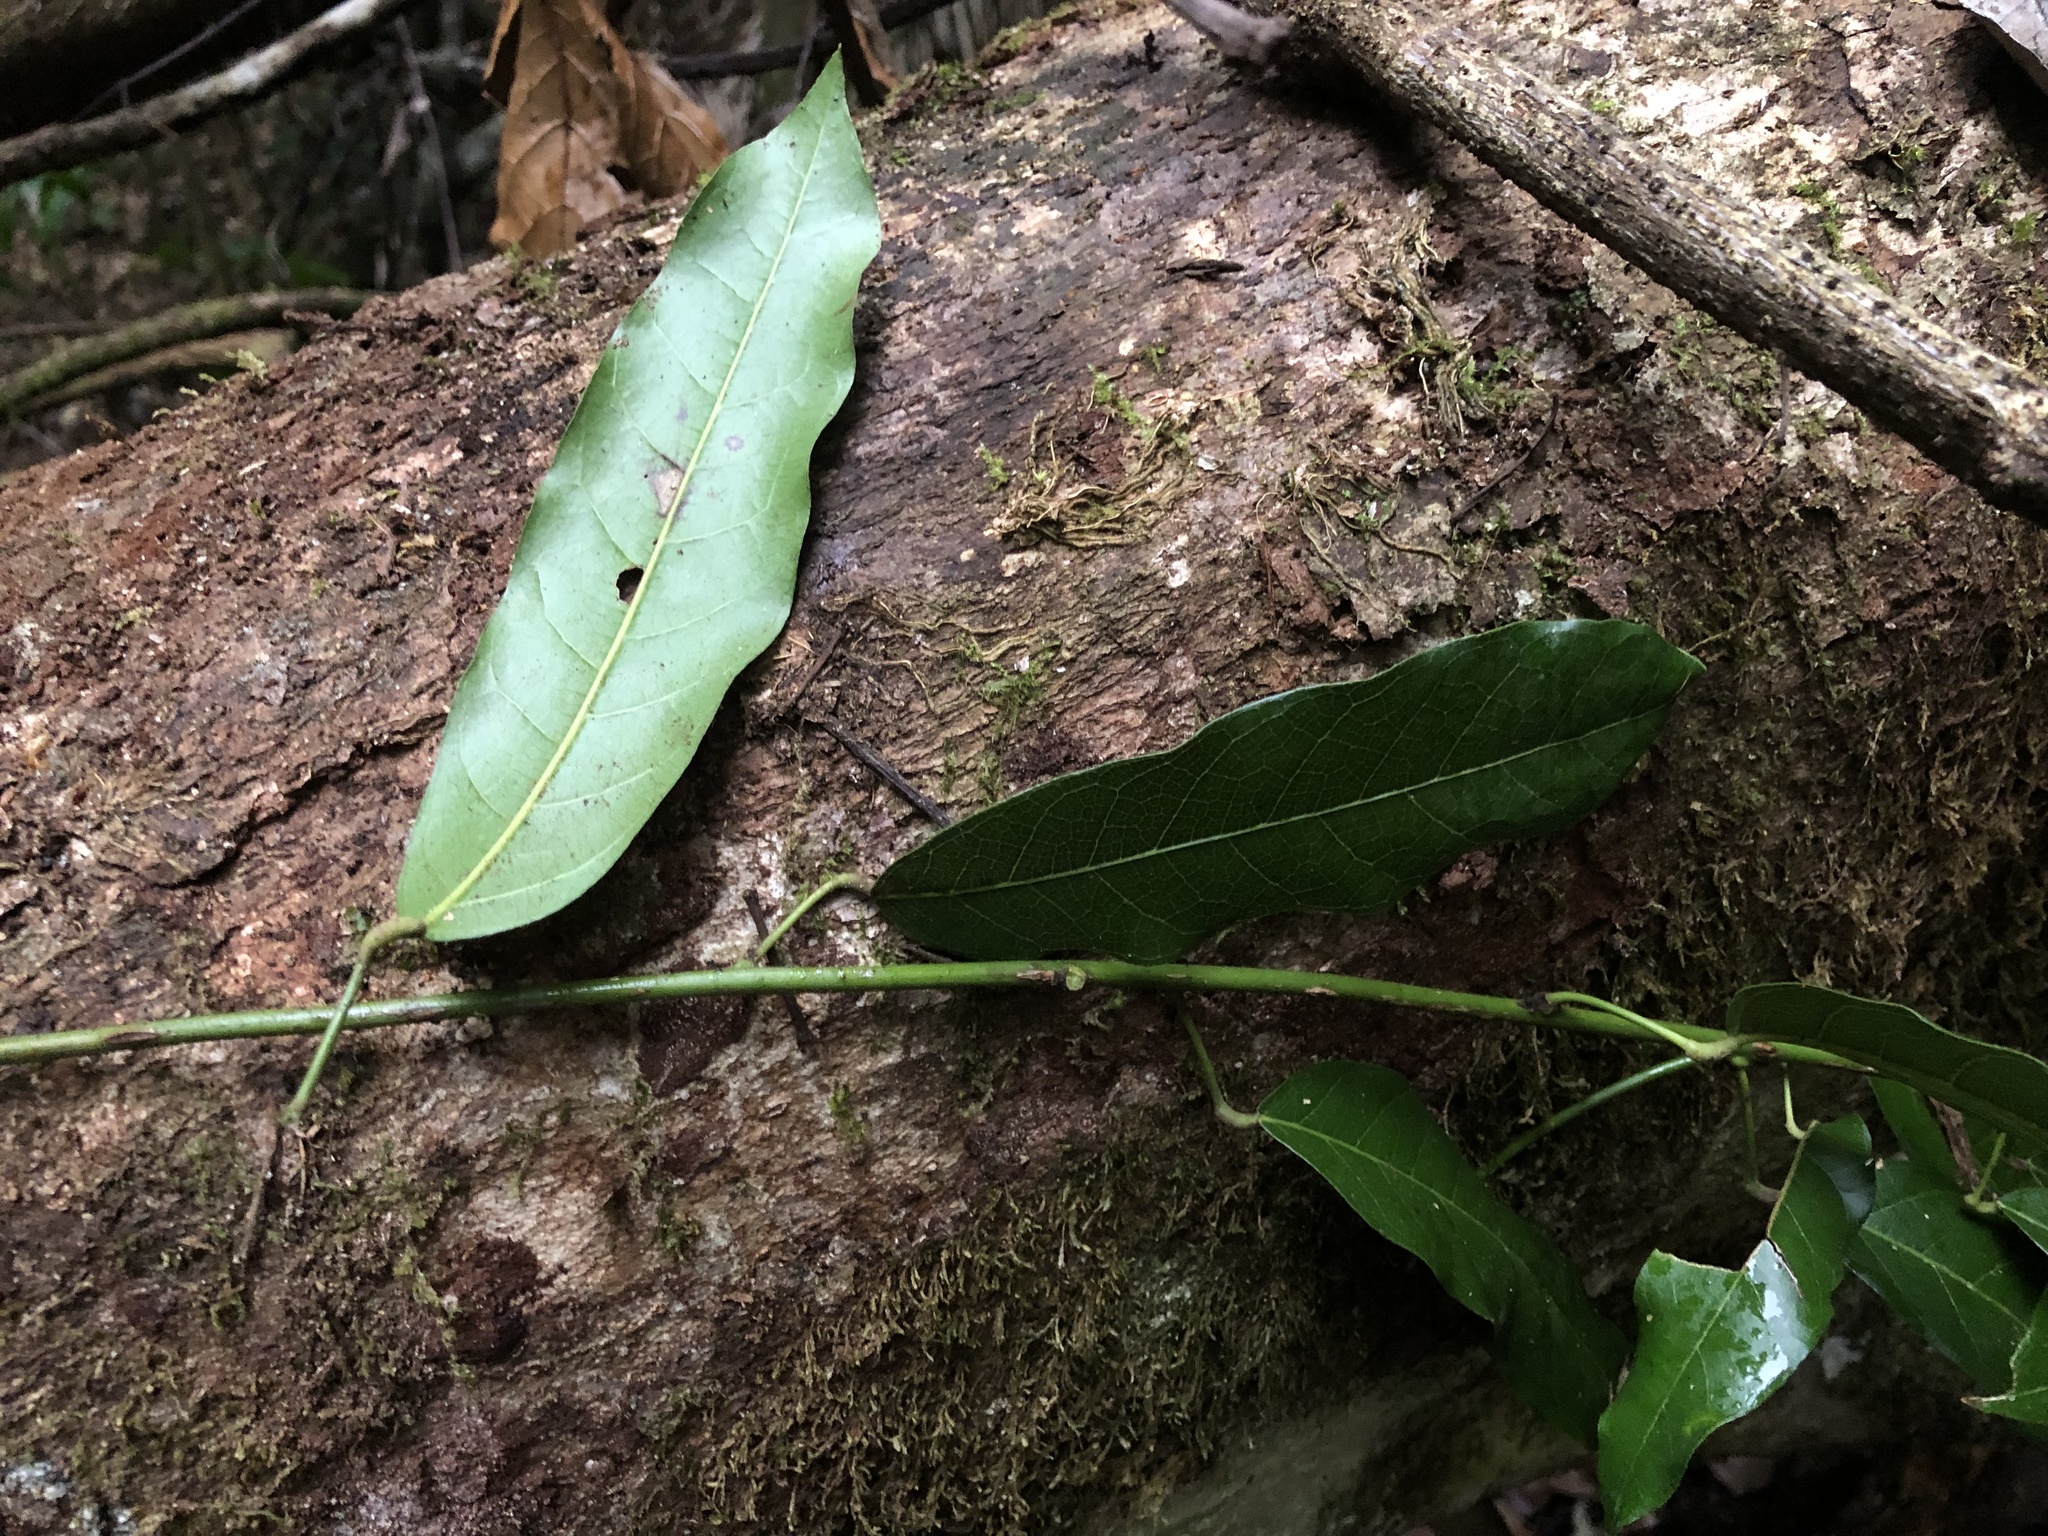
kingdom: Plantae
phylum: Tracheophyta
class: Magnoliopsida
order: Ranunculales
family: Menispermaceae
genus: Carronia
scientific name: Carronia multisepalea
